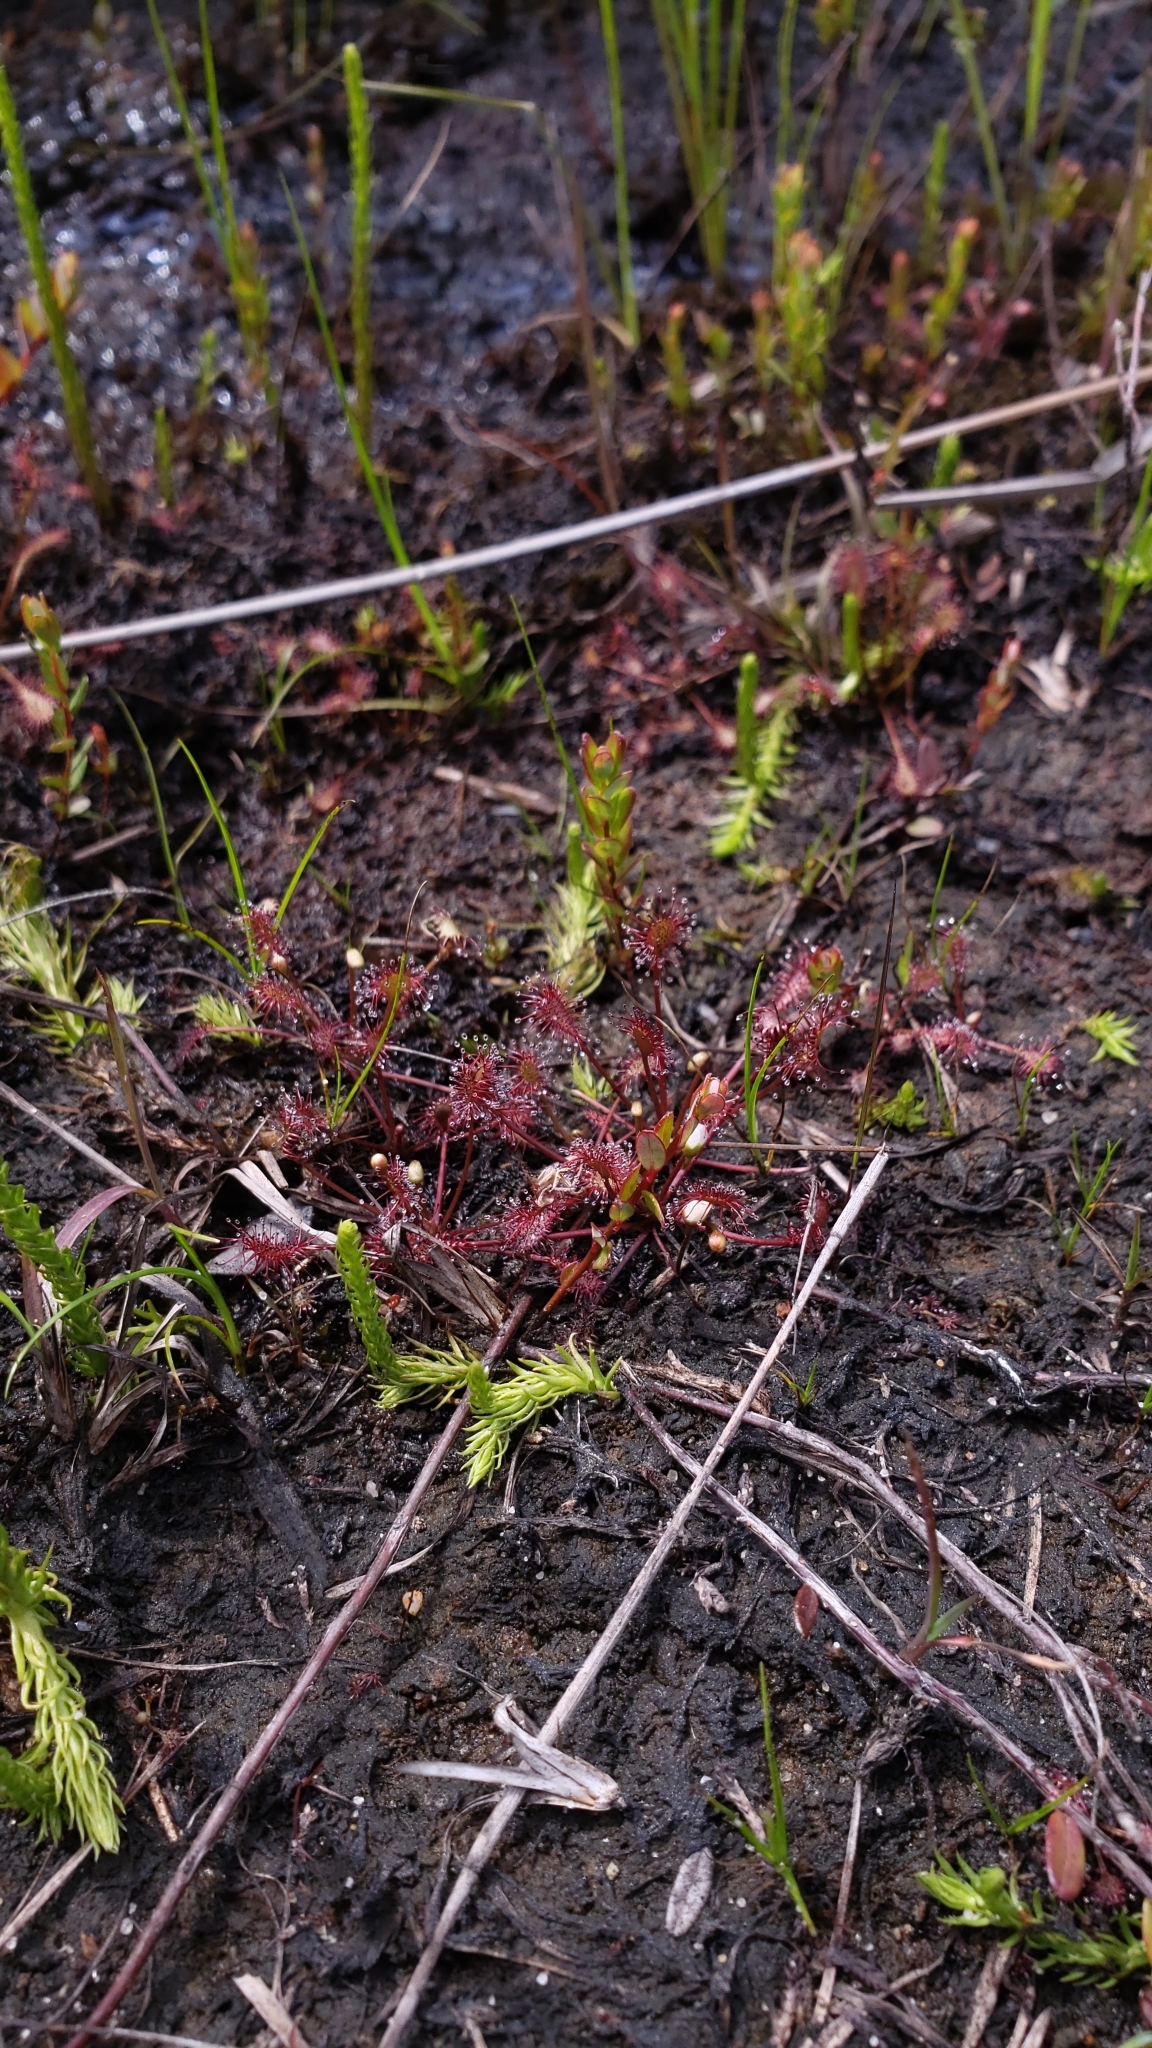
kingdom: Plantae
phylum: Tracheophyta
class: Magnoliopsida
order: Caryophyllales
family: Droseraceae
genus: Drosera
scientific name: Drosera intermedia
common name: Oblong-leaved sundew
